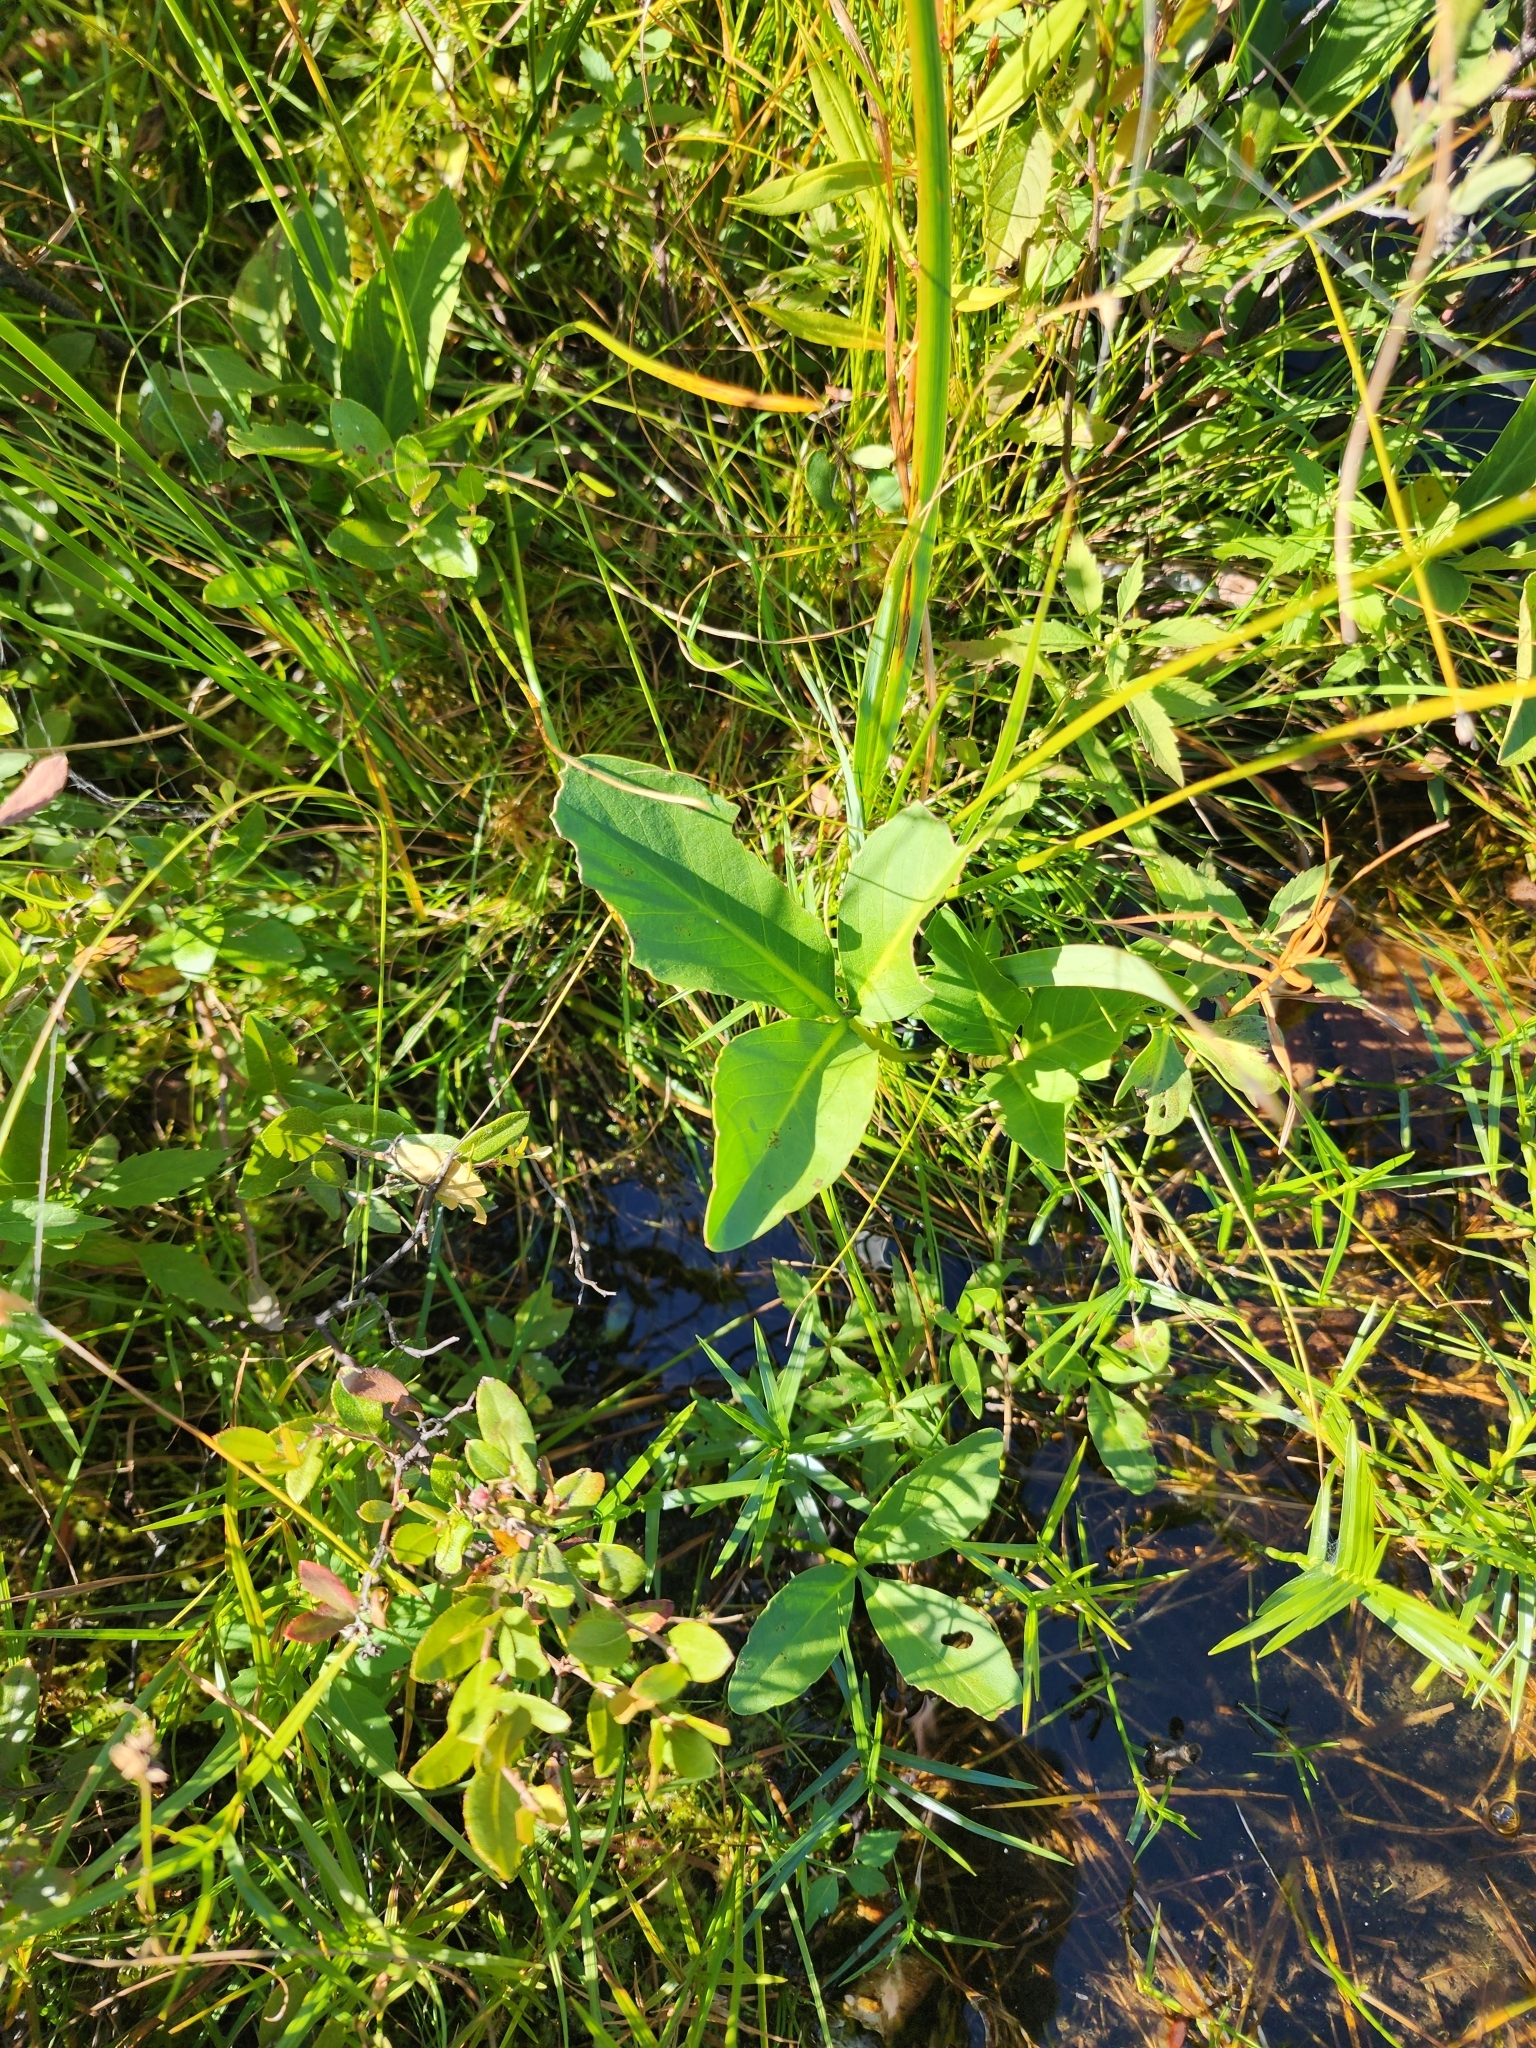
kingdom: Plantae
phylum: Tracheophyta
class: Magnoliopsida
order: Asterales
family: Menyanthaceae
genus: Menyanthes
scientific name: Menyanthes trifoliata
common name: Bogbean
